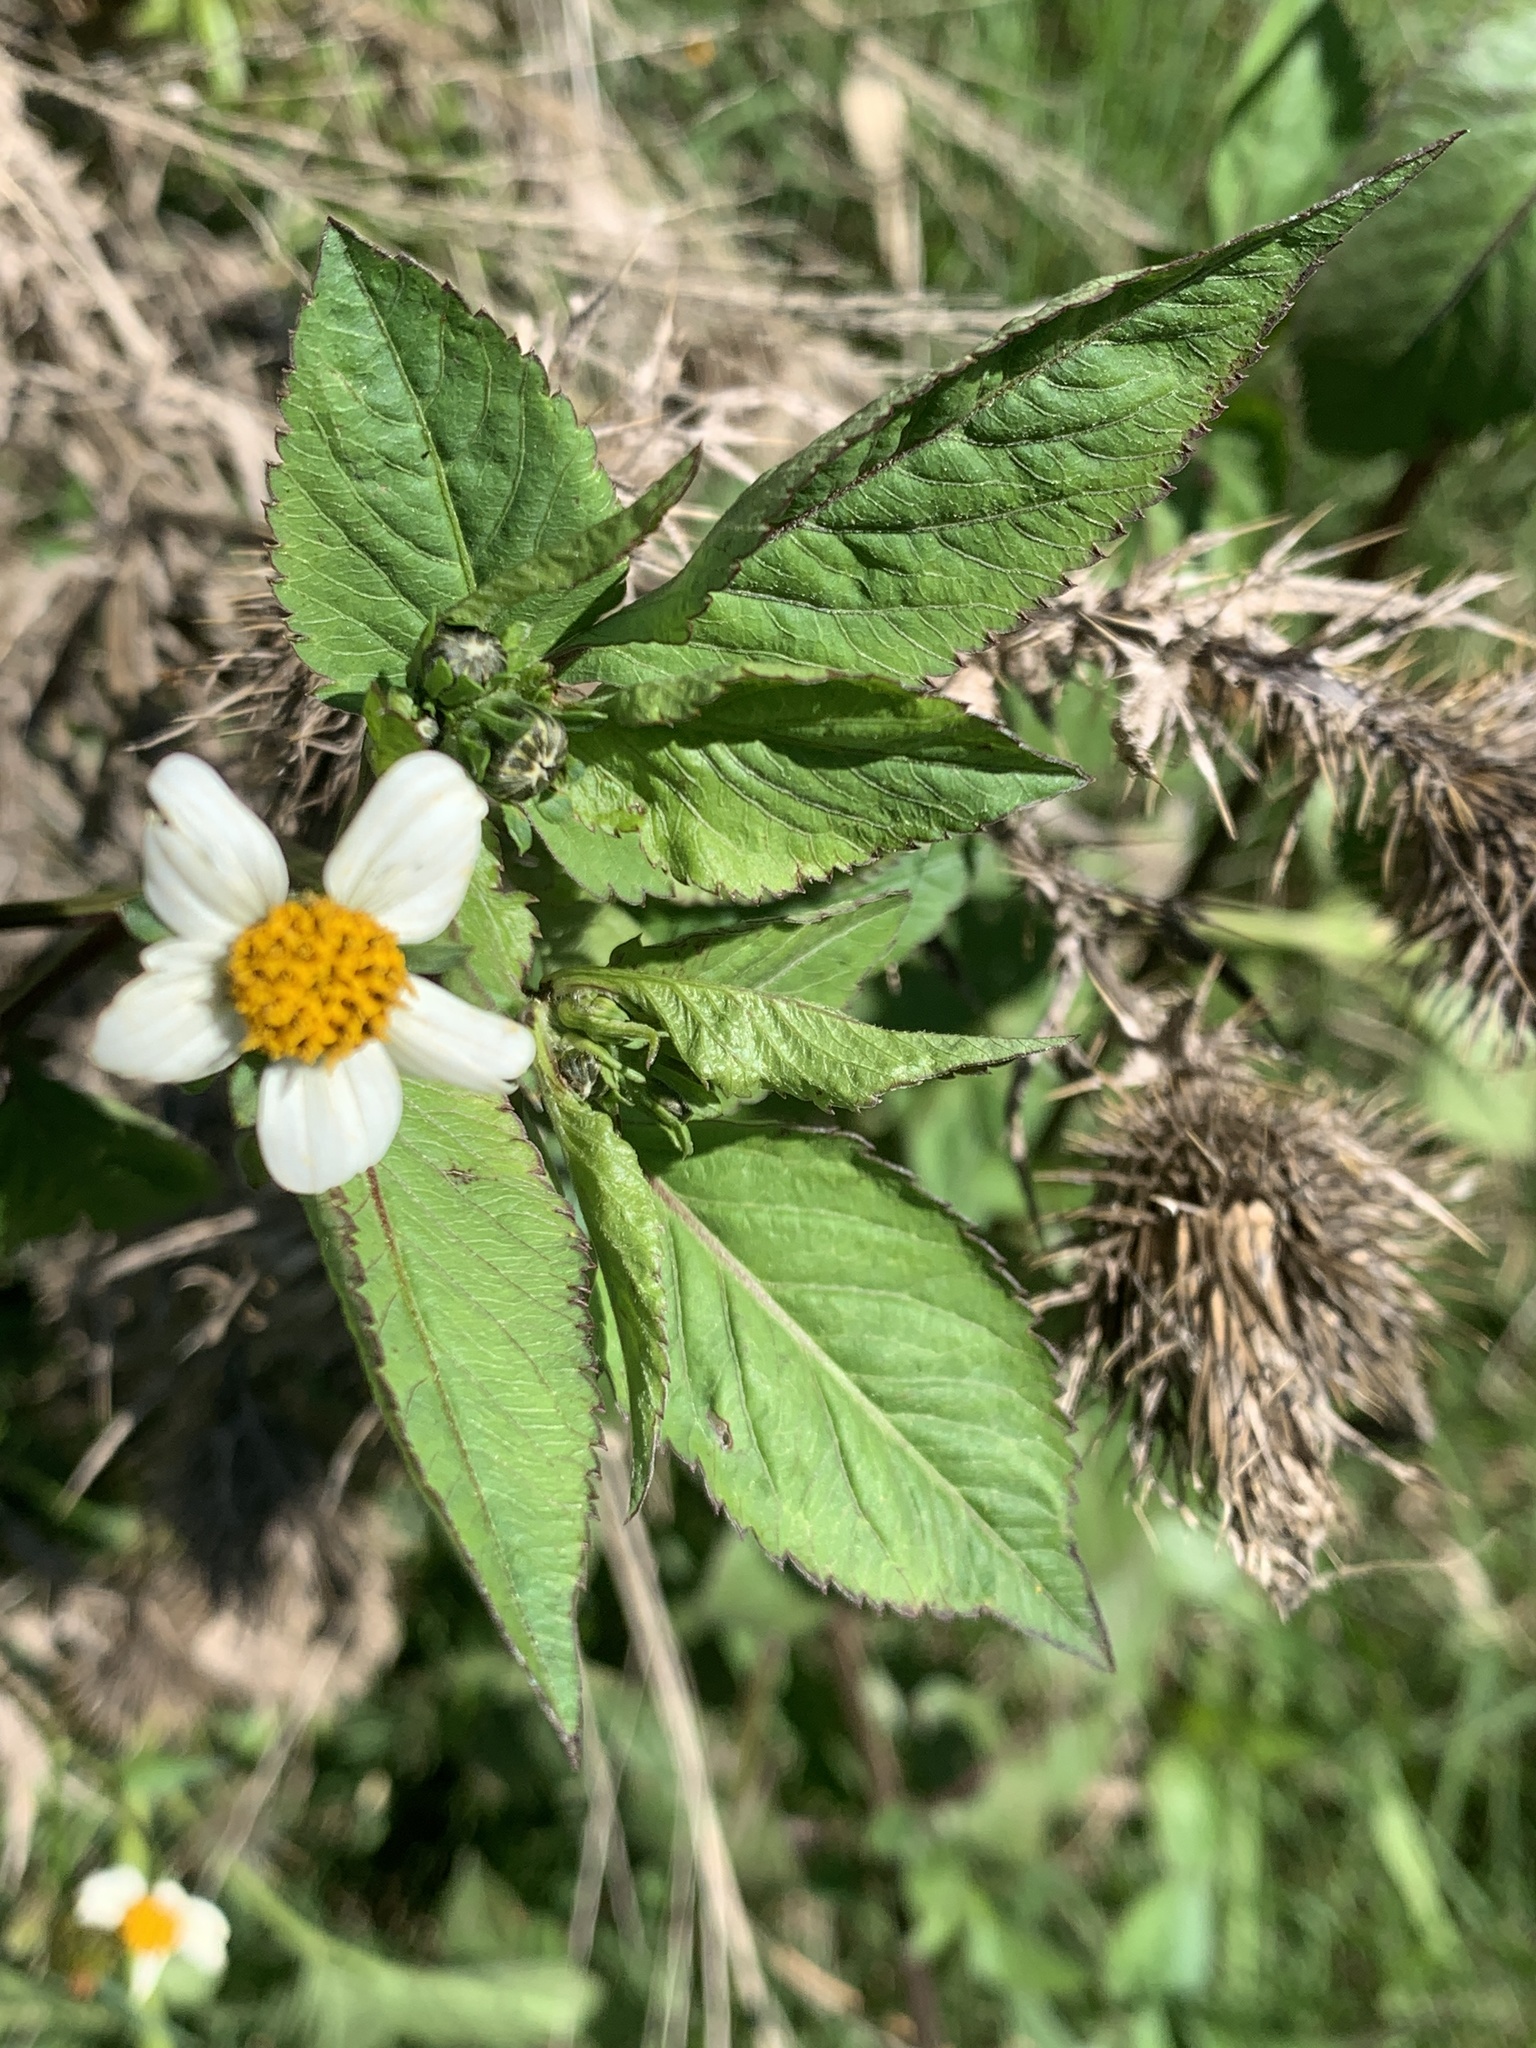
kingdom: Plantae
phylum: Tracheophyta
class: Magnoliopsida
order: Asterales
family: Asteraceae
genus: Bidens
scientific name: Bidens pilosa
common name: Black-jack
